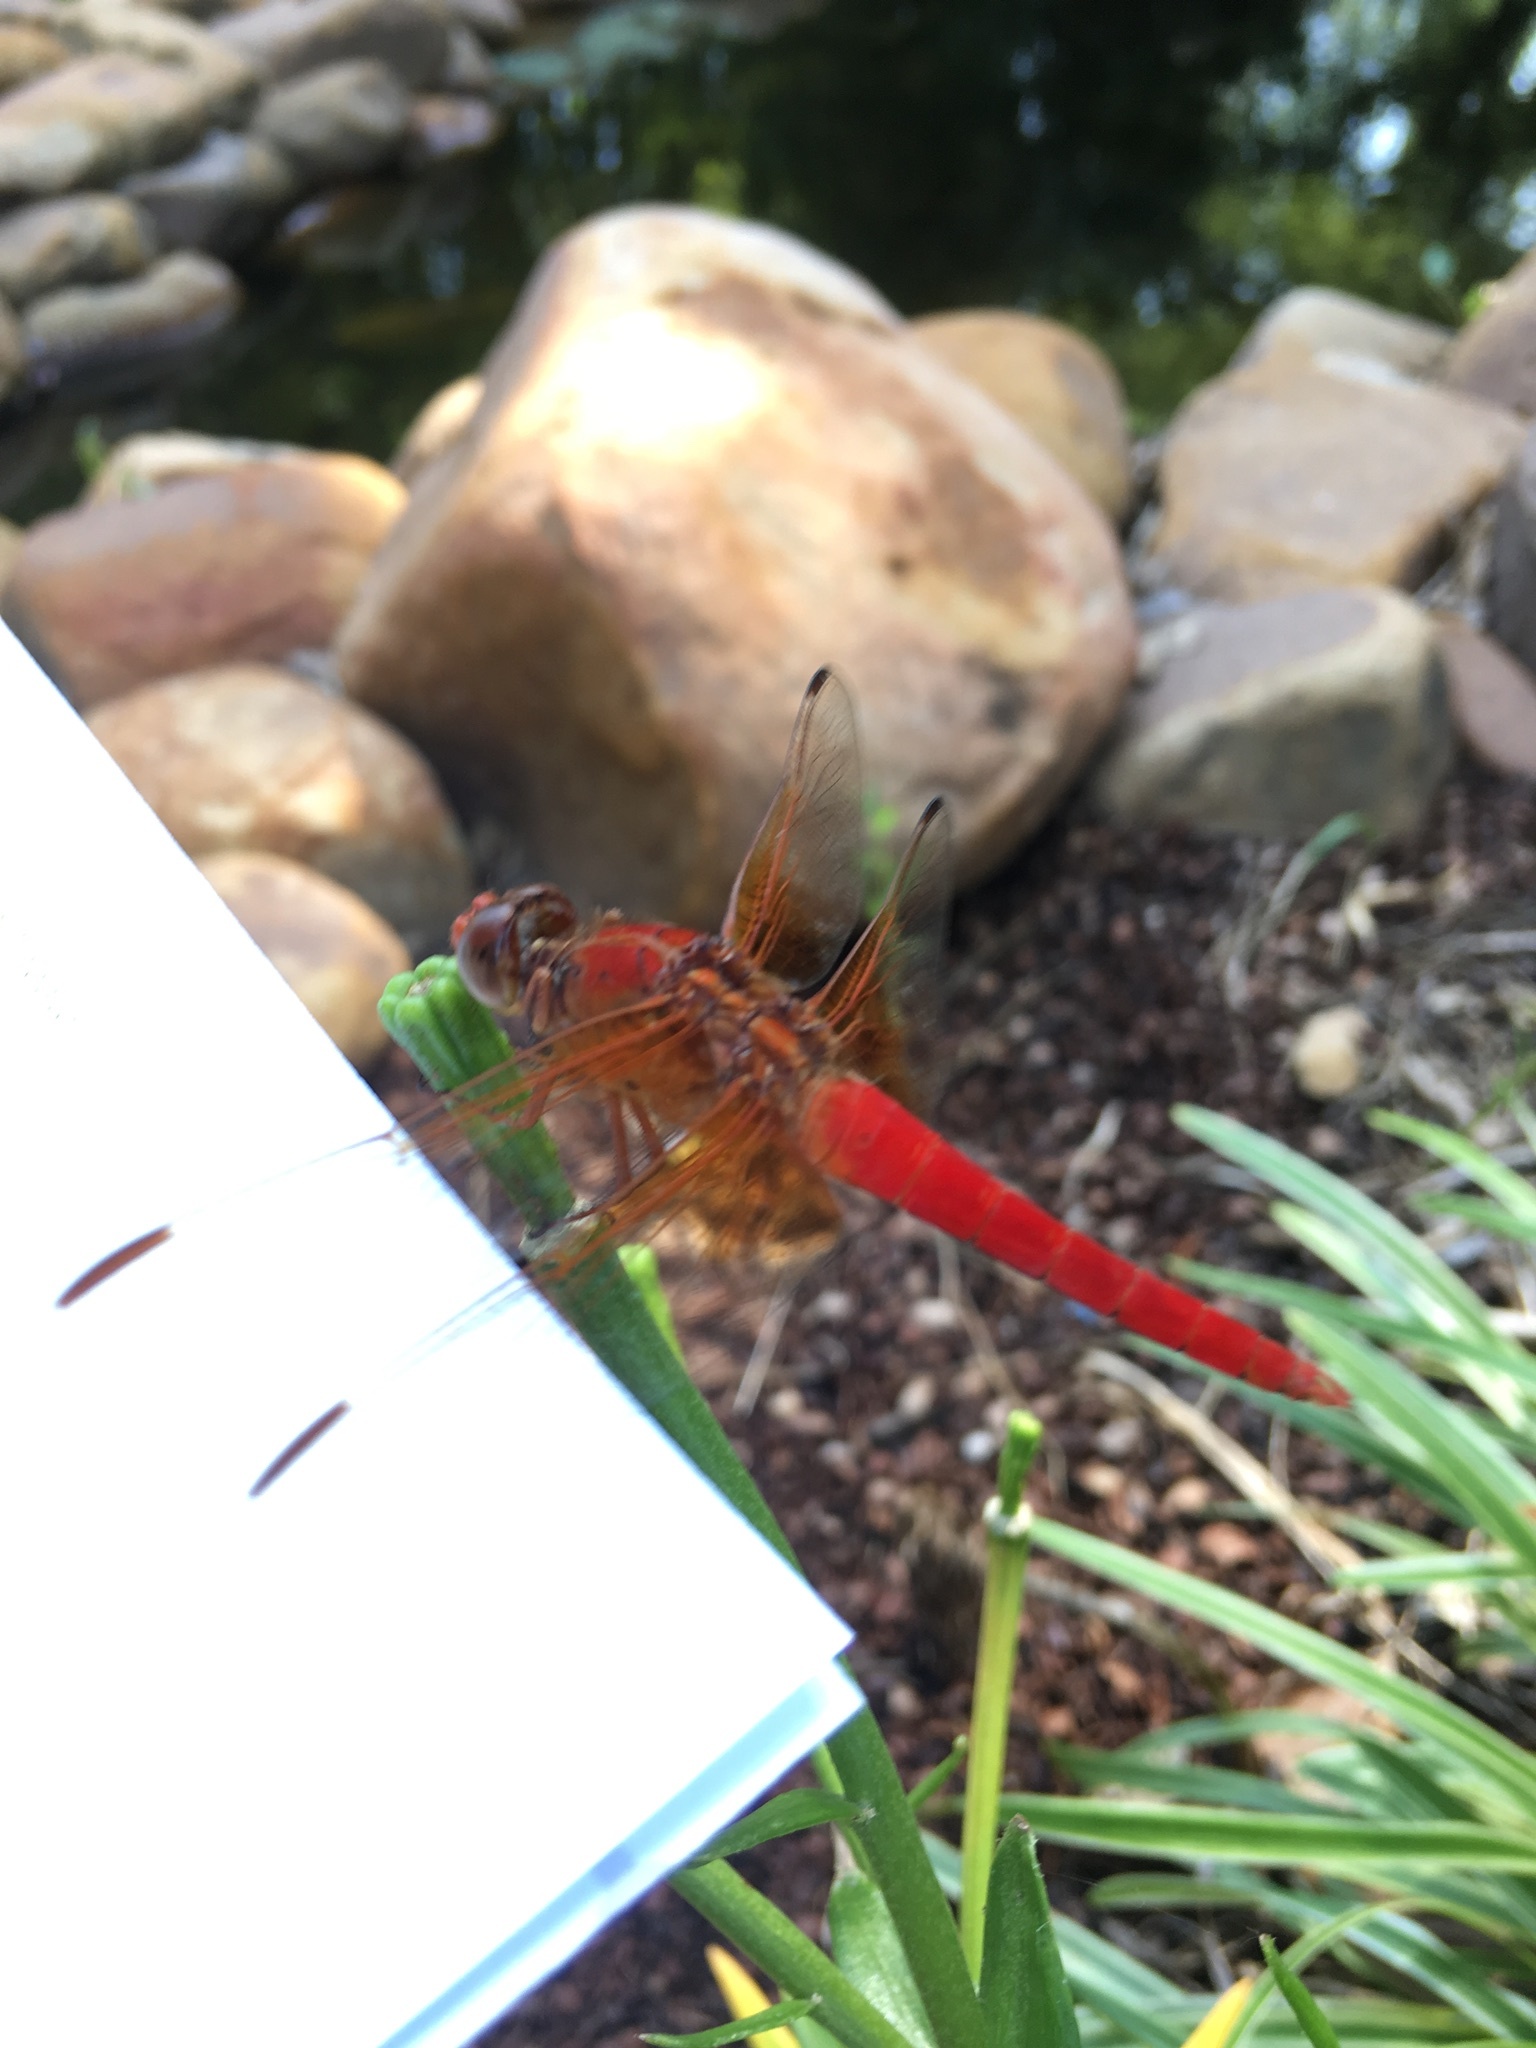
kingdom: Animalia
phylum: Arthropoda
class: Insecta
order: Odonata
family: Libellulidae
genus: Libellula
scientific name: Libellula croceipennis
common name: Neon skimmer
